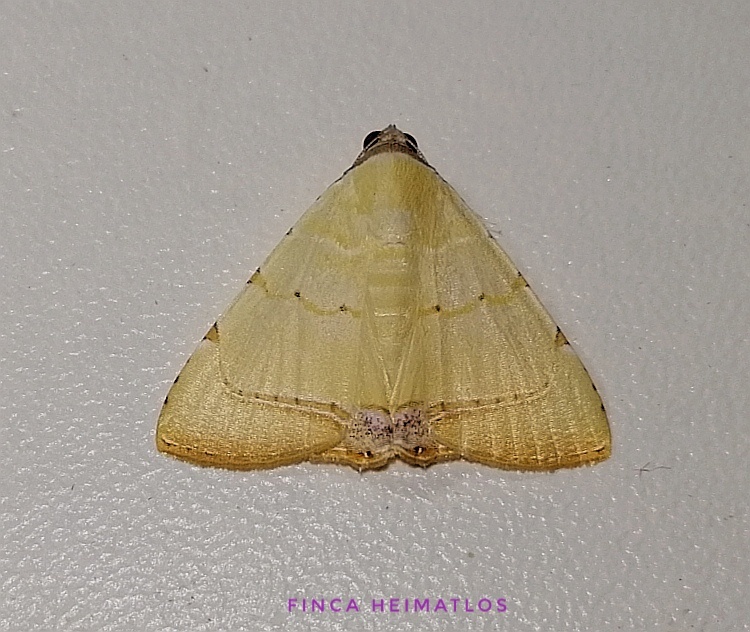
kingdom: Animalia
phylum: Arthropoda
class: Insecta
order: Lepidoptera
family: Erebidae
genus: Eulepidotis
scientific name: Eulepidotis micca
